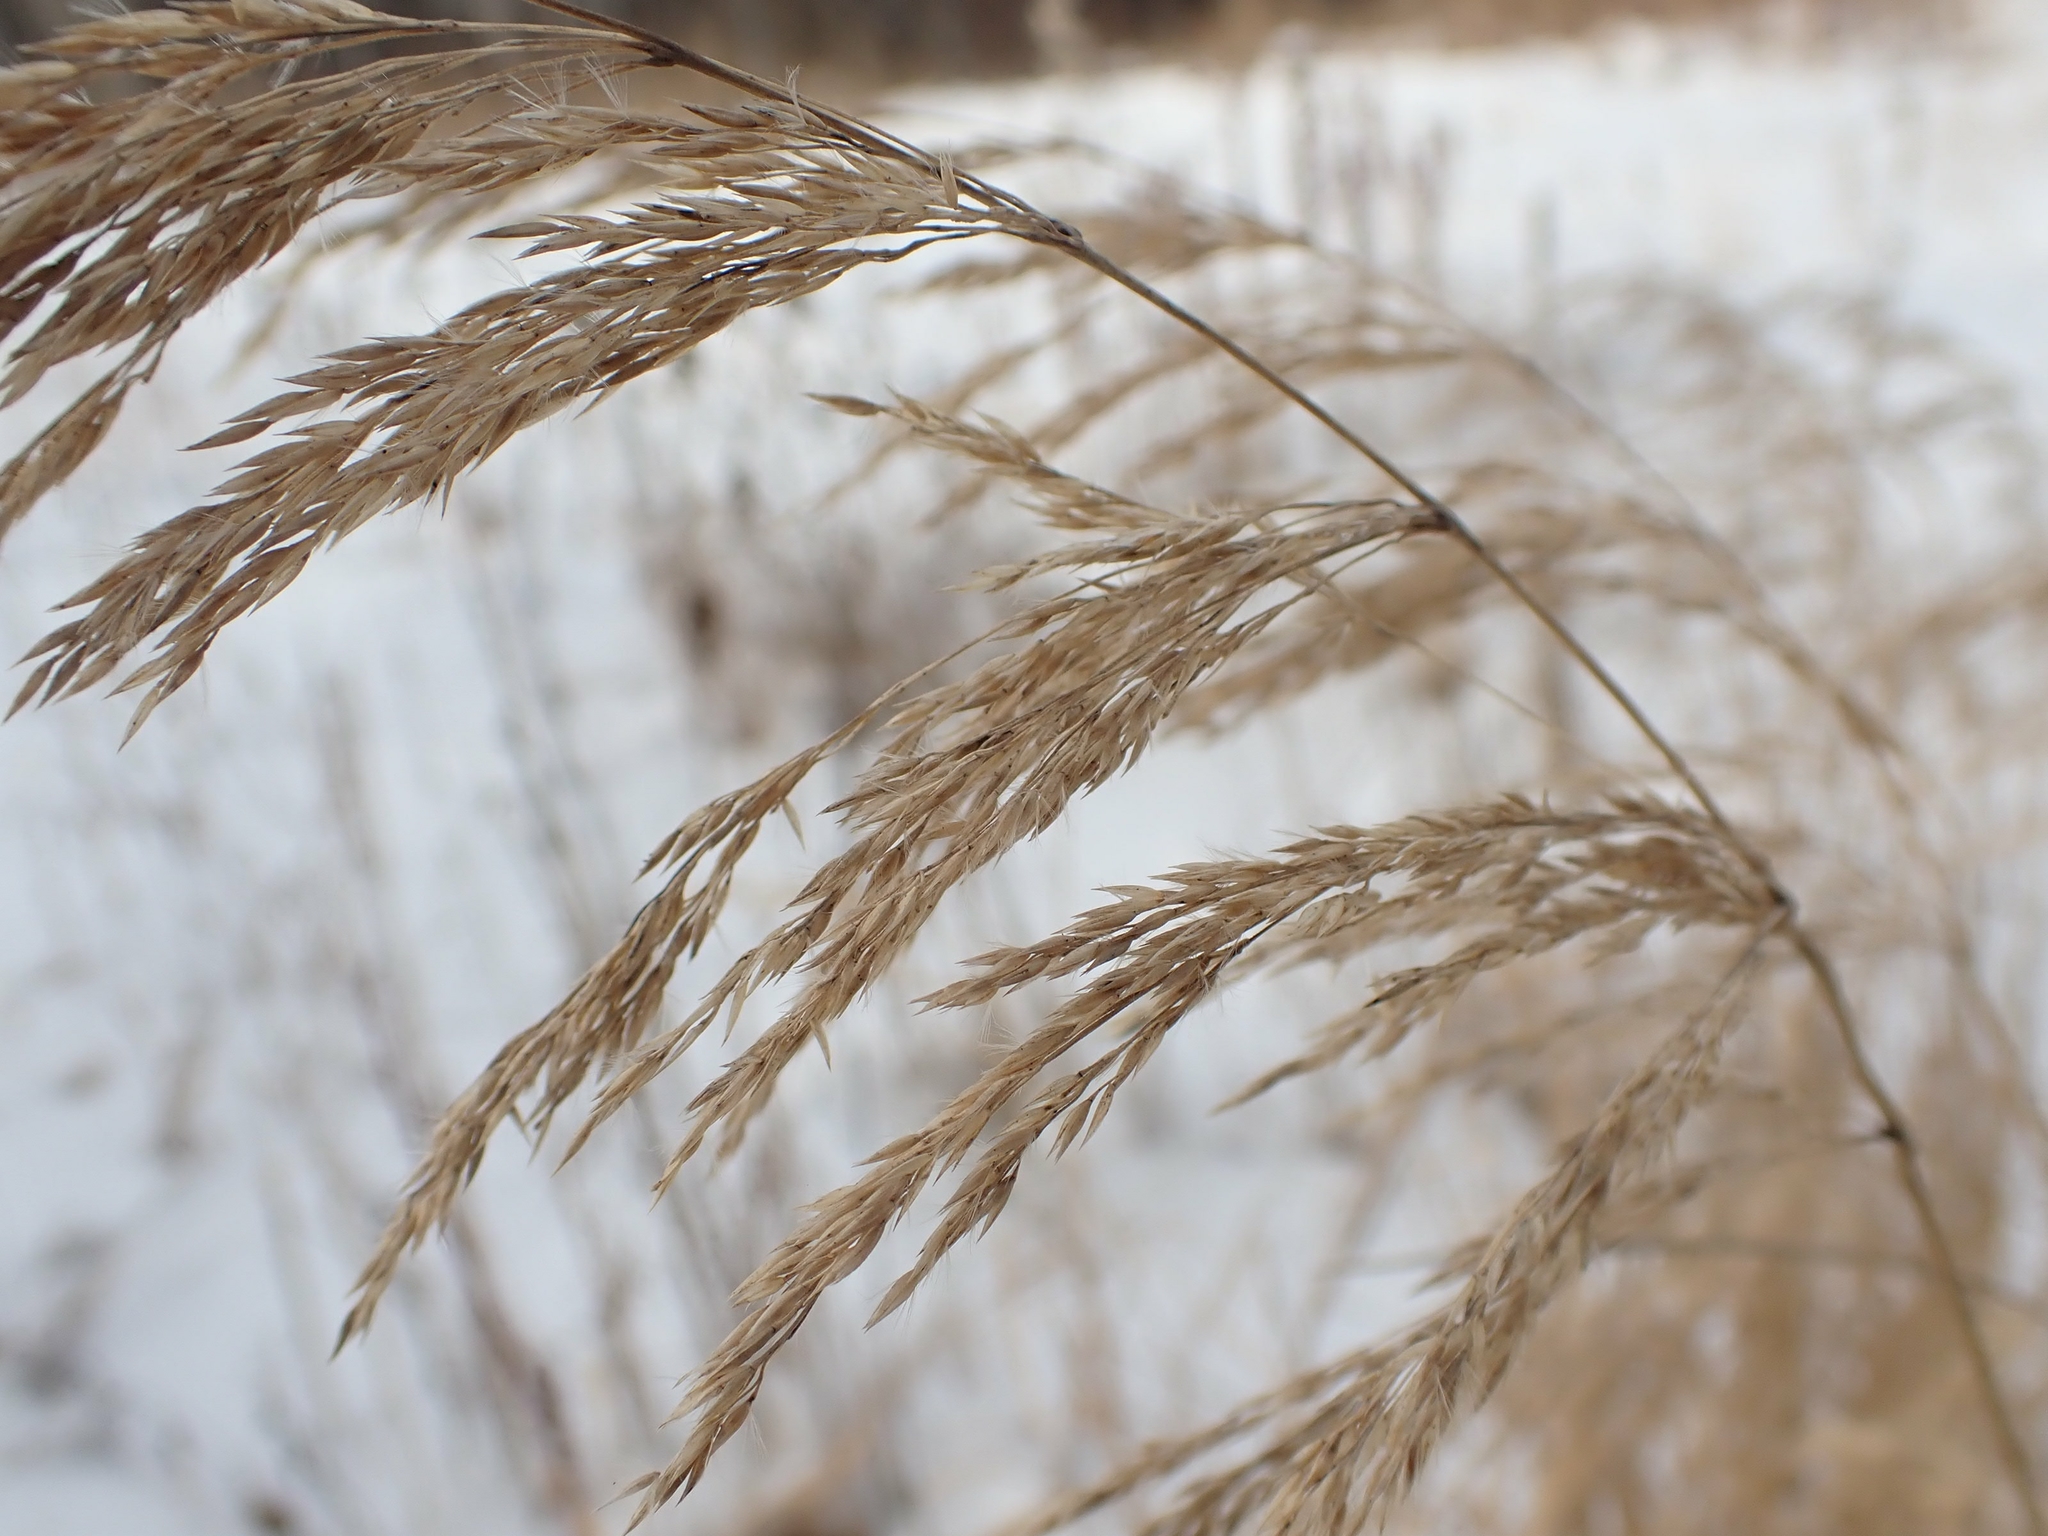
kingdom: Plantae
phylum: Tracheophyta
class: Liliopsida
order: Poales
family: Poaceae
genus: Calamagrostis
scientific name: Calamagrostis canadensis
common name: Canada bluejoint
